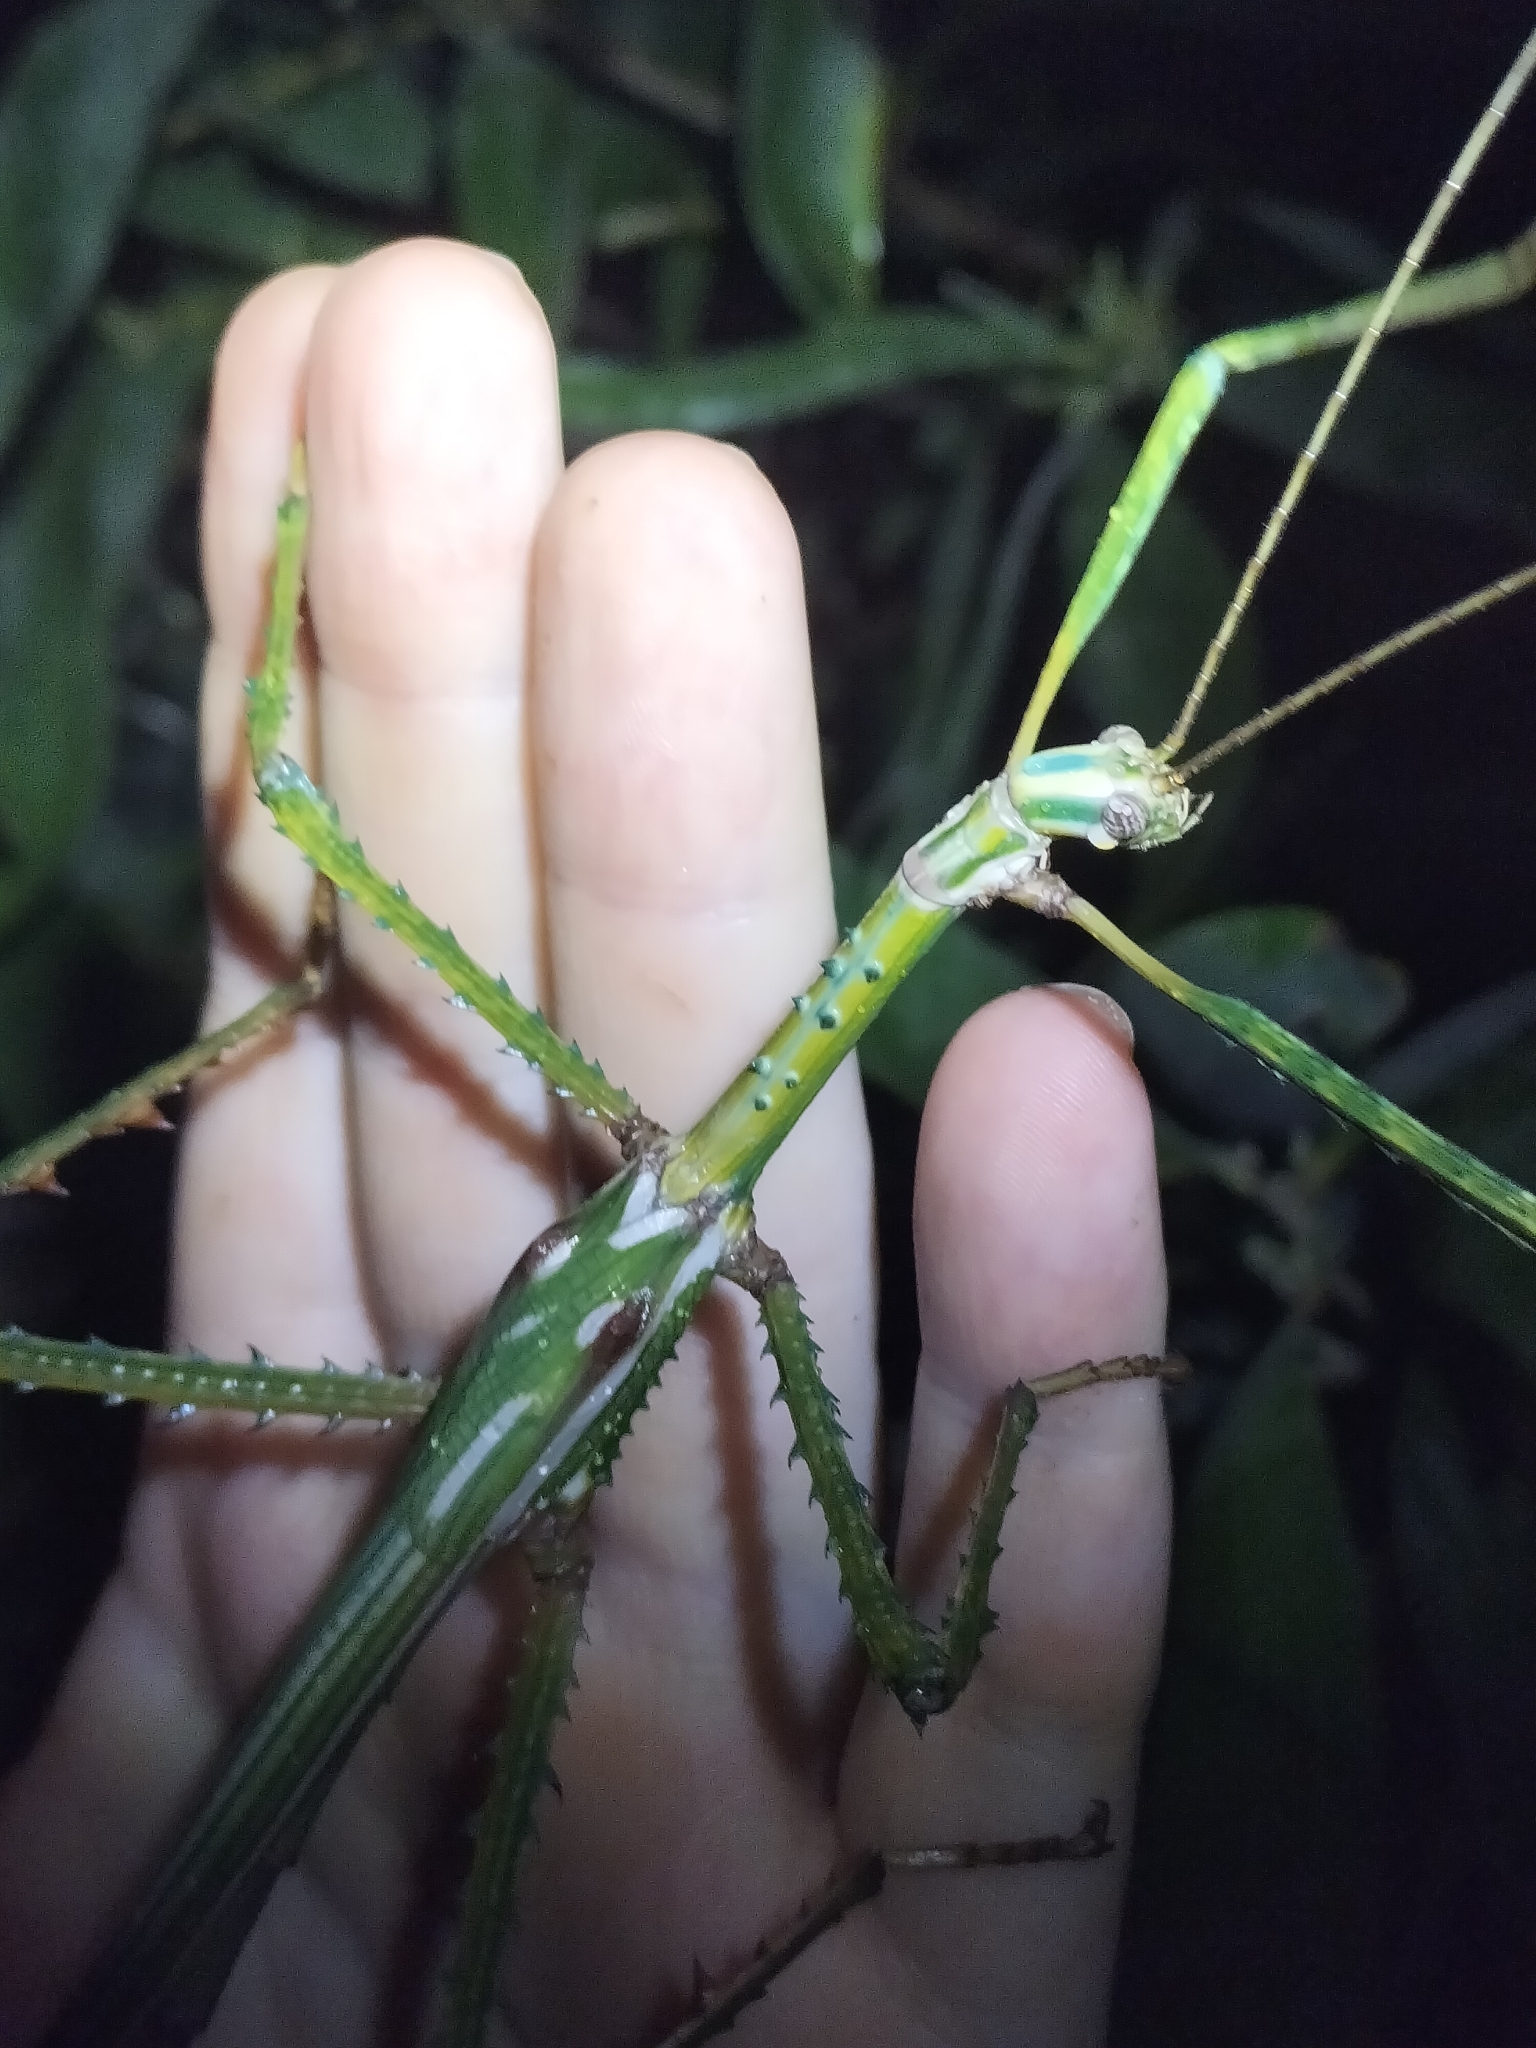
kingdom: Animalia
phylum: Arthropoda
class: Insecta
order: Phasmida
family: Phasmatidae
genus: Eurycnema
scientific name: Eurycnema goliath
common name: Goliath stick insect
